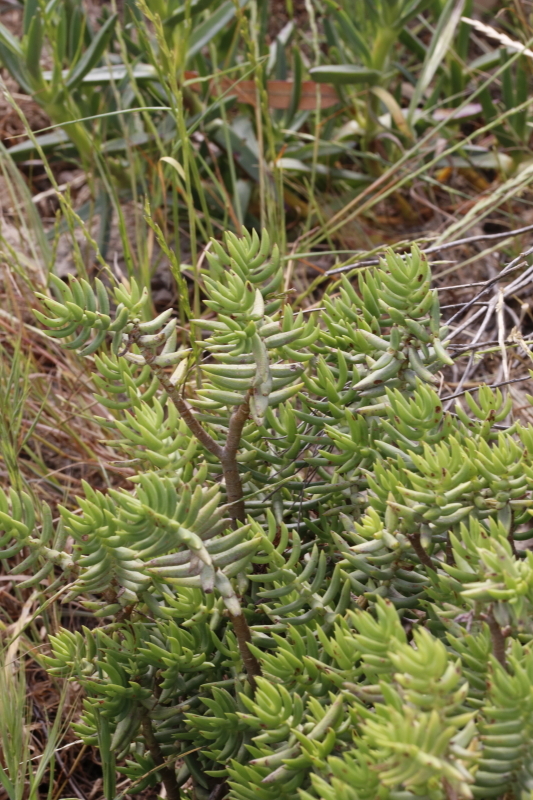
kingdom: Plantae
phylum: Tracheophyta
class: Magnoliopsida
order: Saxifragales
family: Crassulaceae
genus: Crassula
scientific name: Crassula tetragona
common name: Pygmyweed
